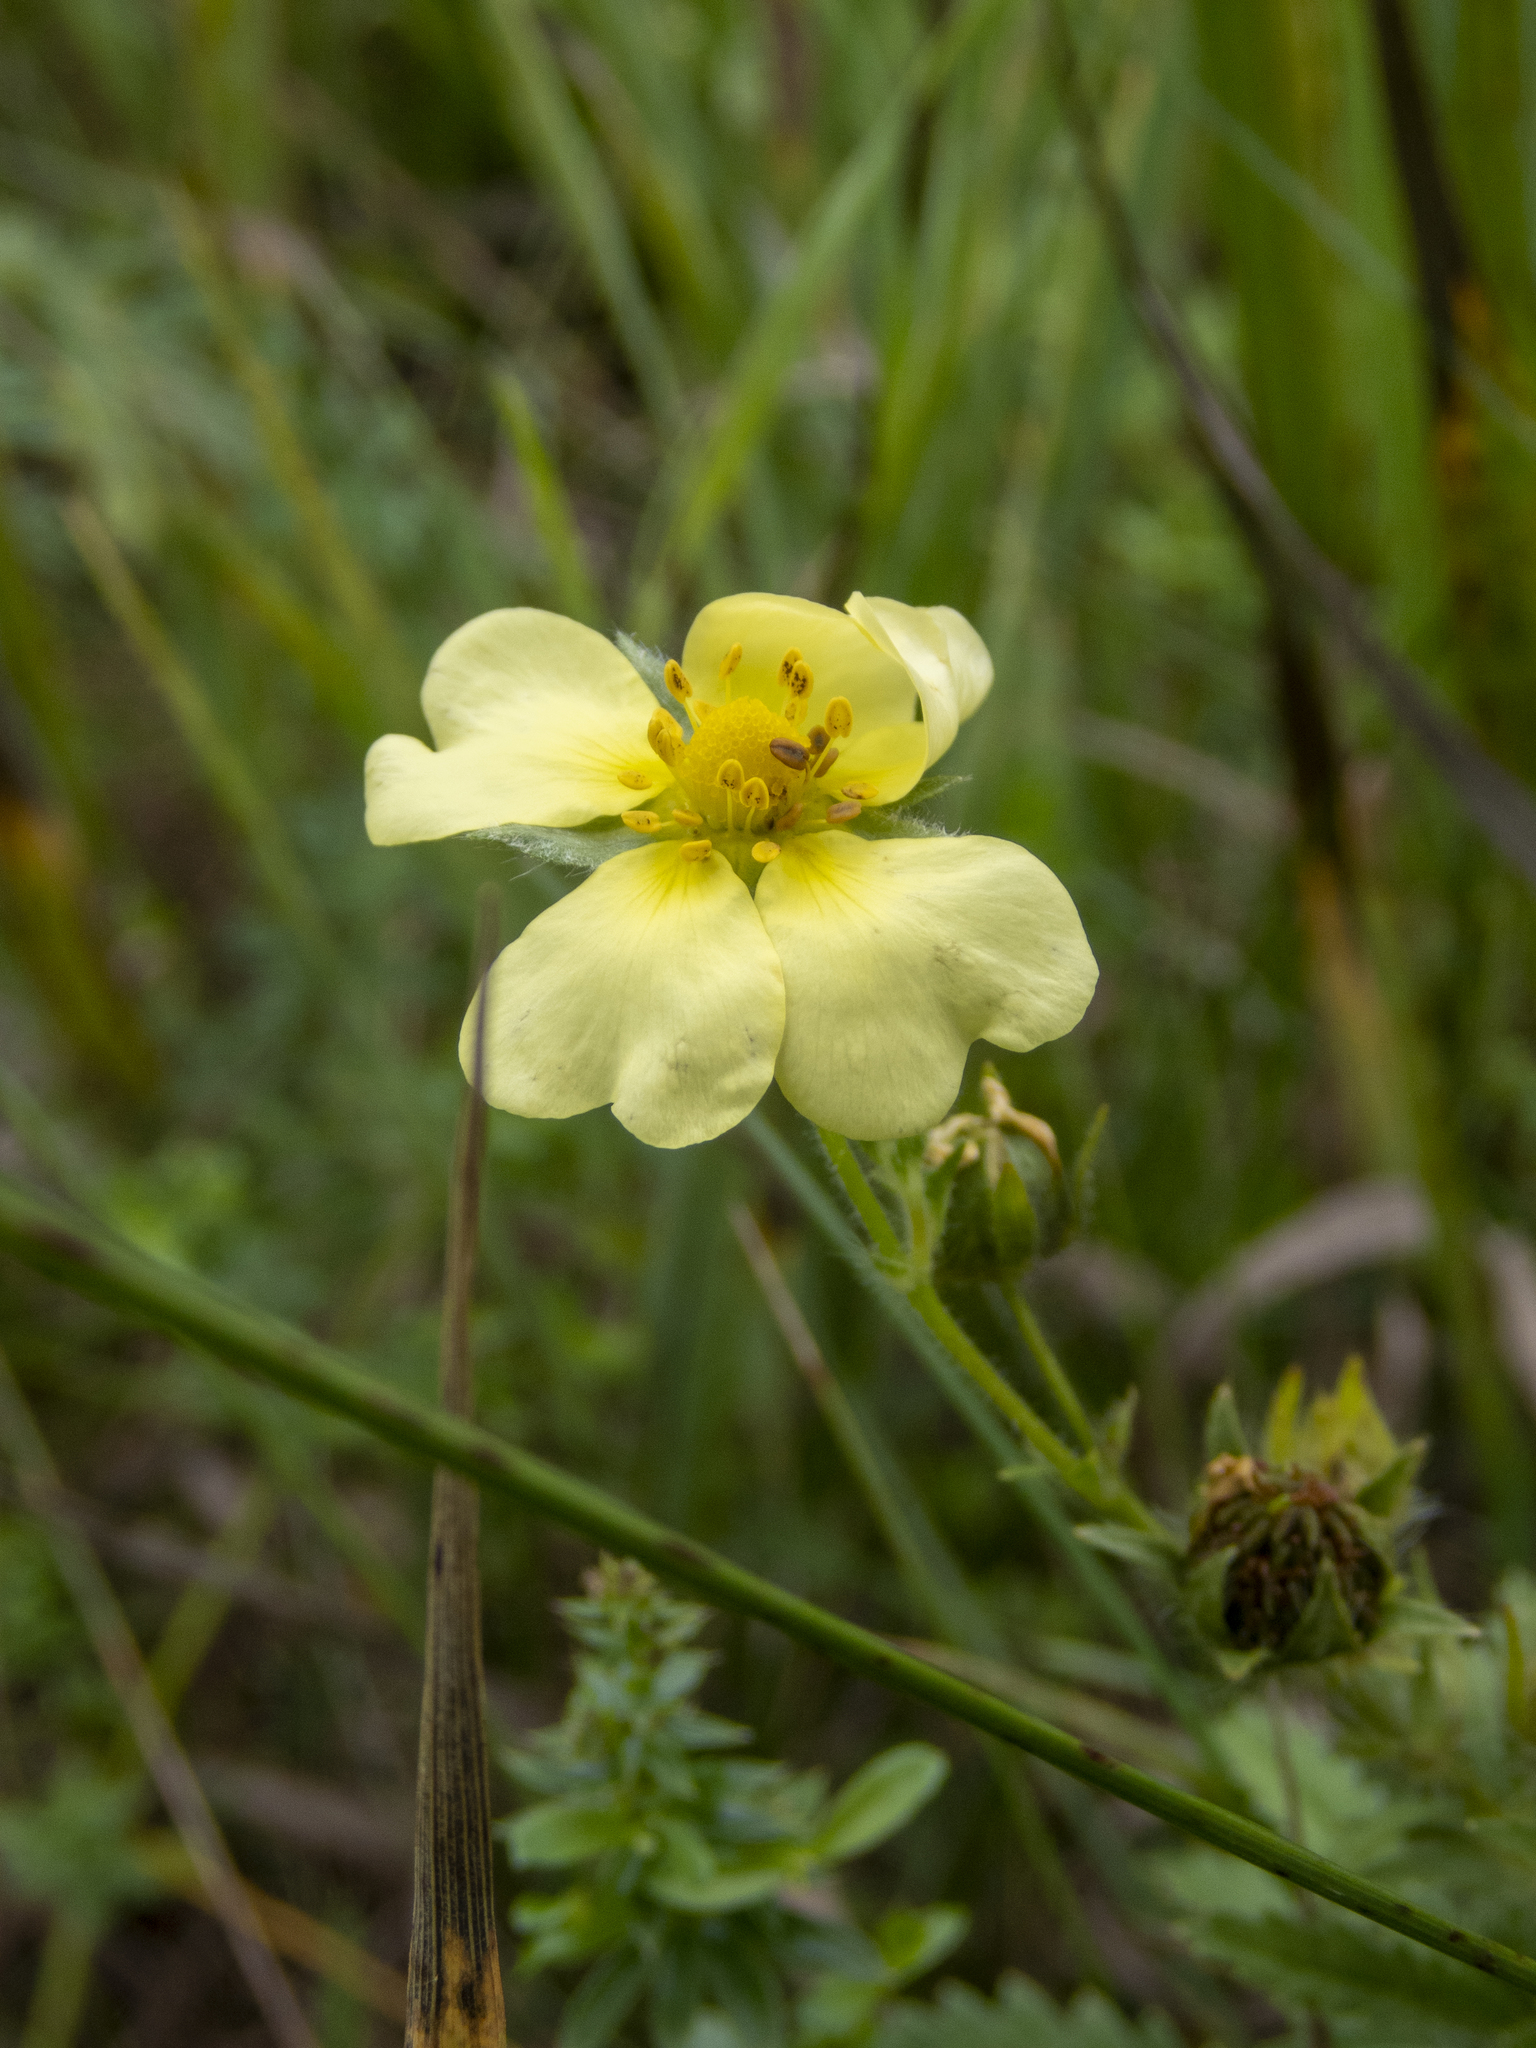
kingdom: Plantae
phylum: Tracheophyta
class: Magnoliopsida
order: Rosales
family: Rosaceae
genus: Potentilla
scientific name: Potentilla recta
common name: Sulphur cinquefoil
